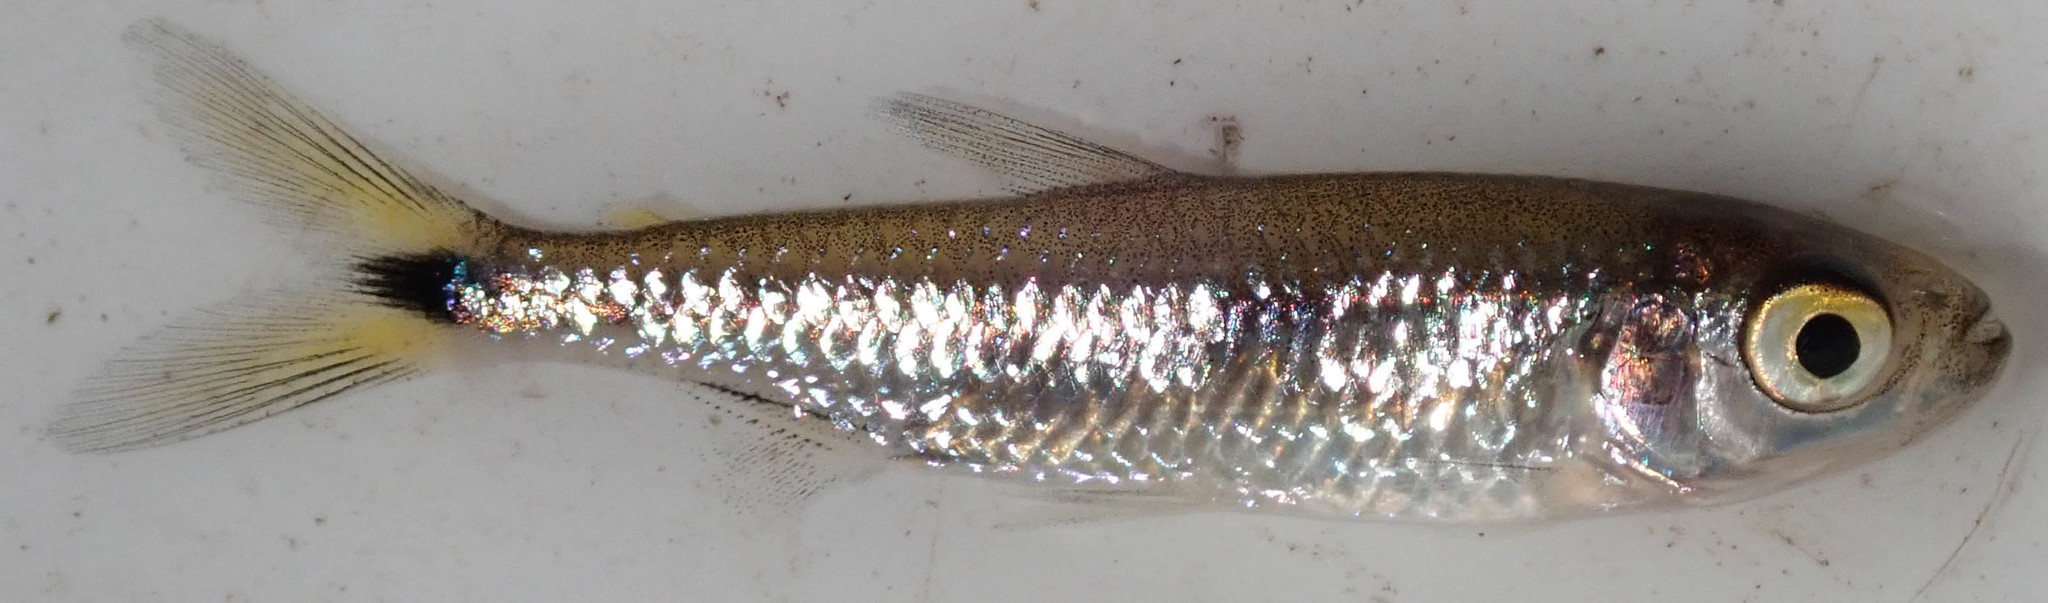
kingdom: Animalia
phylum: Chordata
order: Characiformes
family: Alestidae
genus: Alestes
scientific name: Alestes
